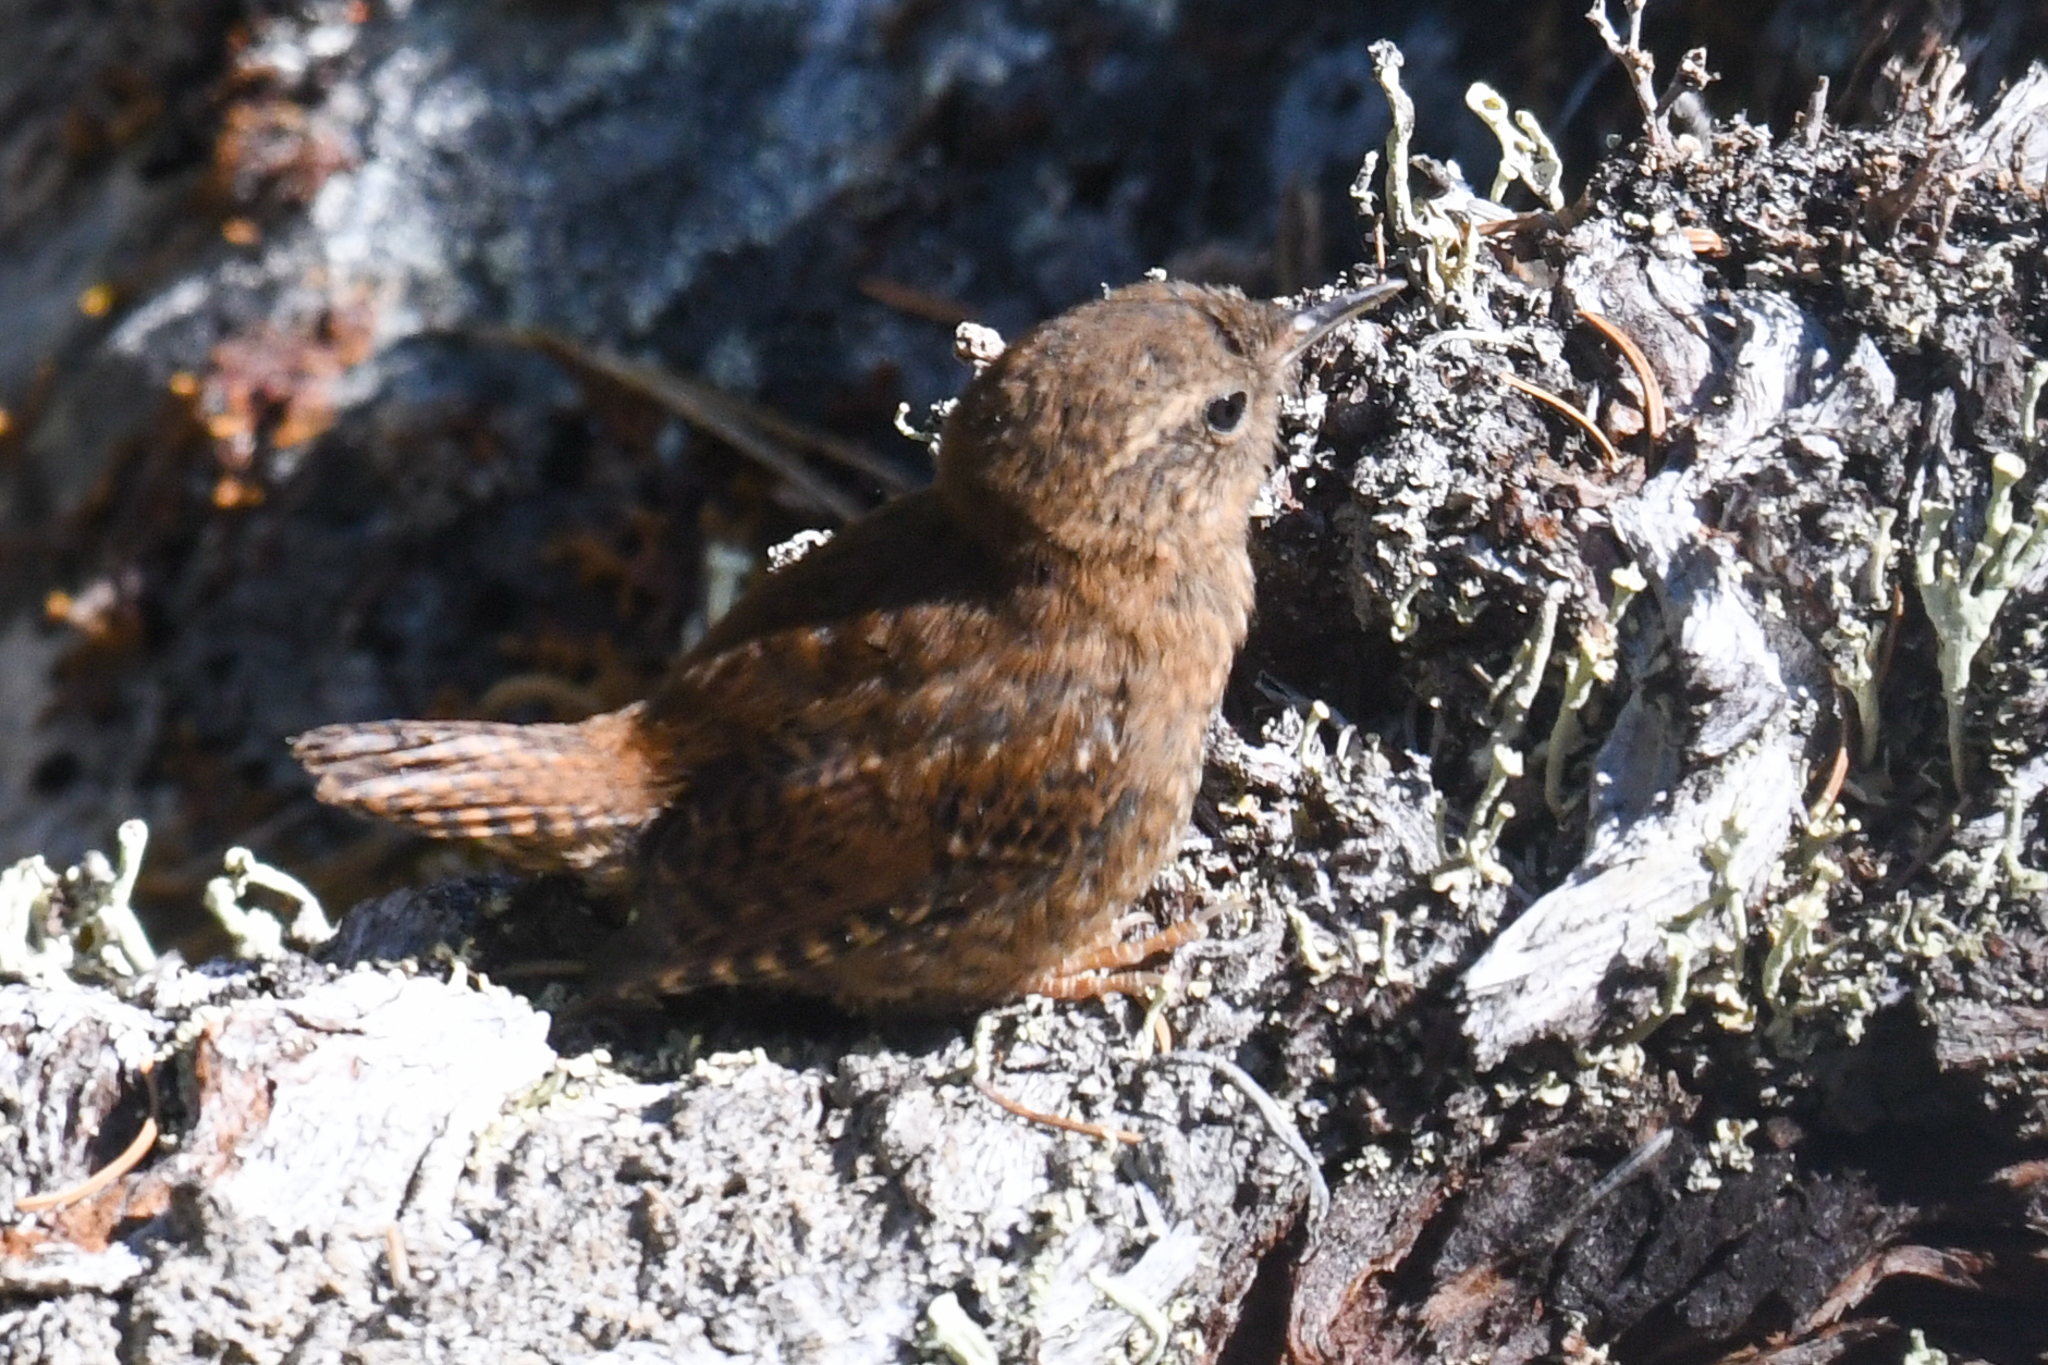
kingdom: Animalia
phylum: Chordata
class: Aves
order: Passeriformes
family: Troglodytidae
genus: Troglodytes
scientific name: Troglodytes pacificus
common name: Pacific wren
